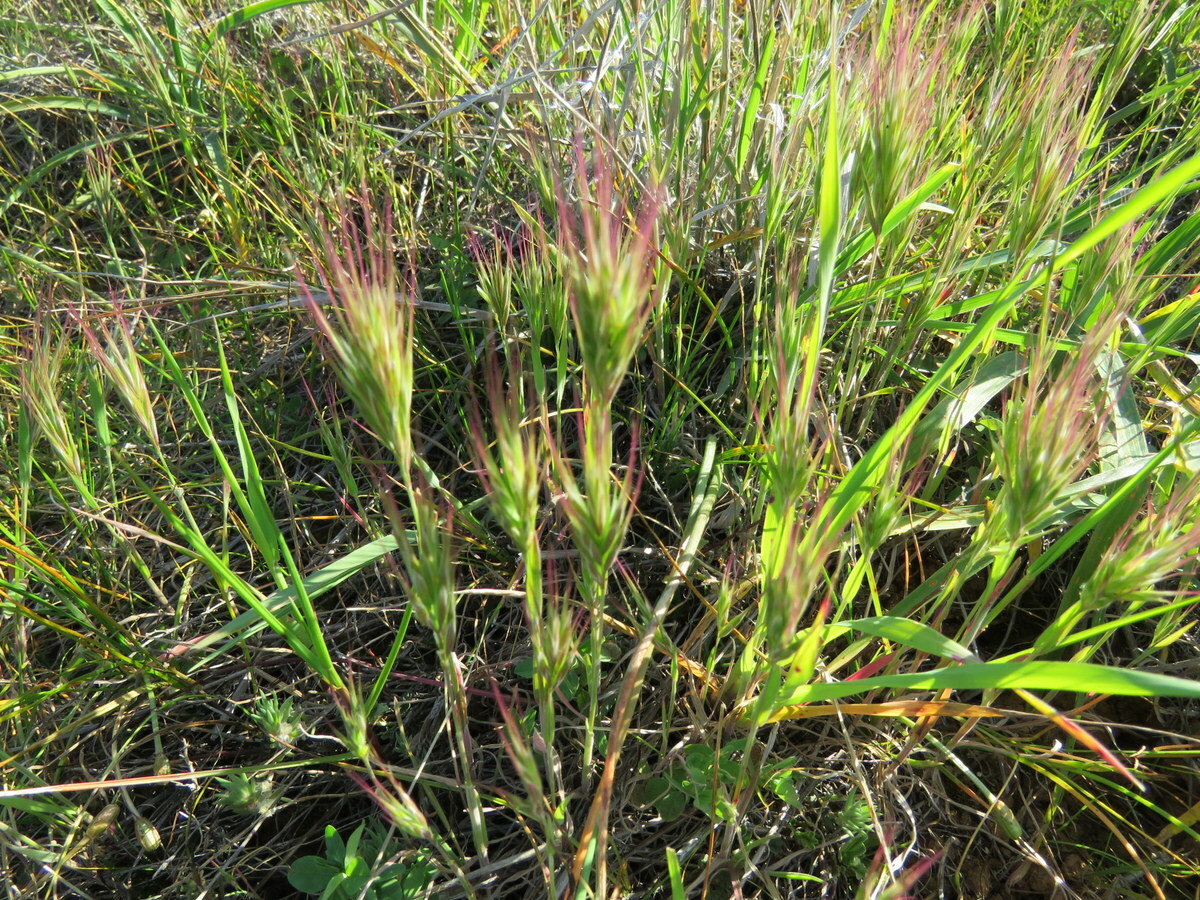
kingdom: Plantae
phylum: Tracheophyta
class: Liliopsida
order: Poales
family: Poaceae
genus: Bromus
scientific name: Bromus rubens
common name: Red brome
